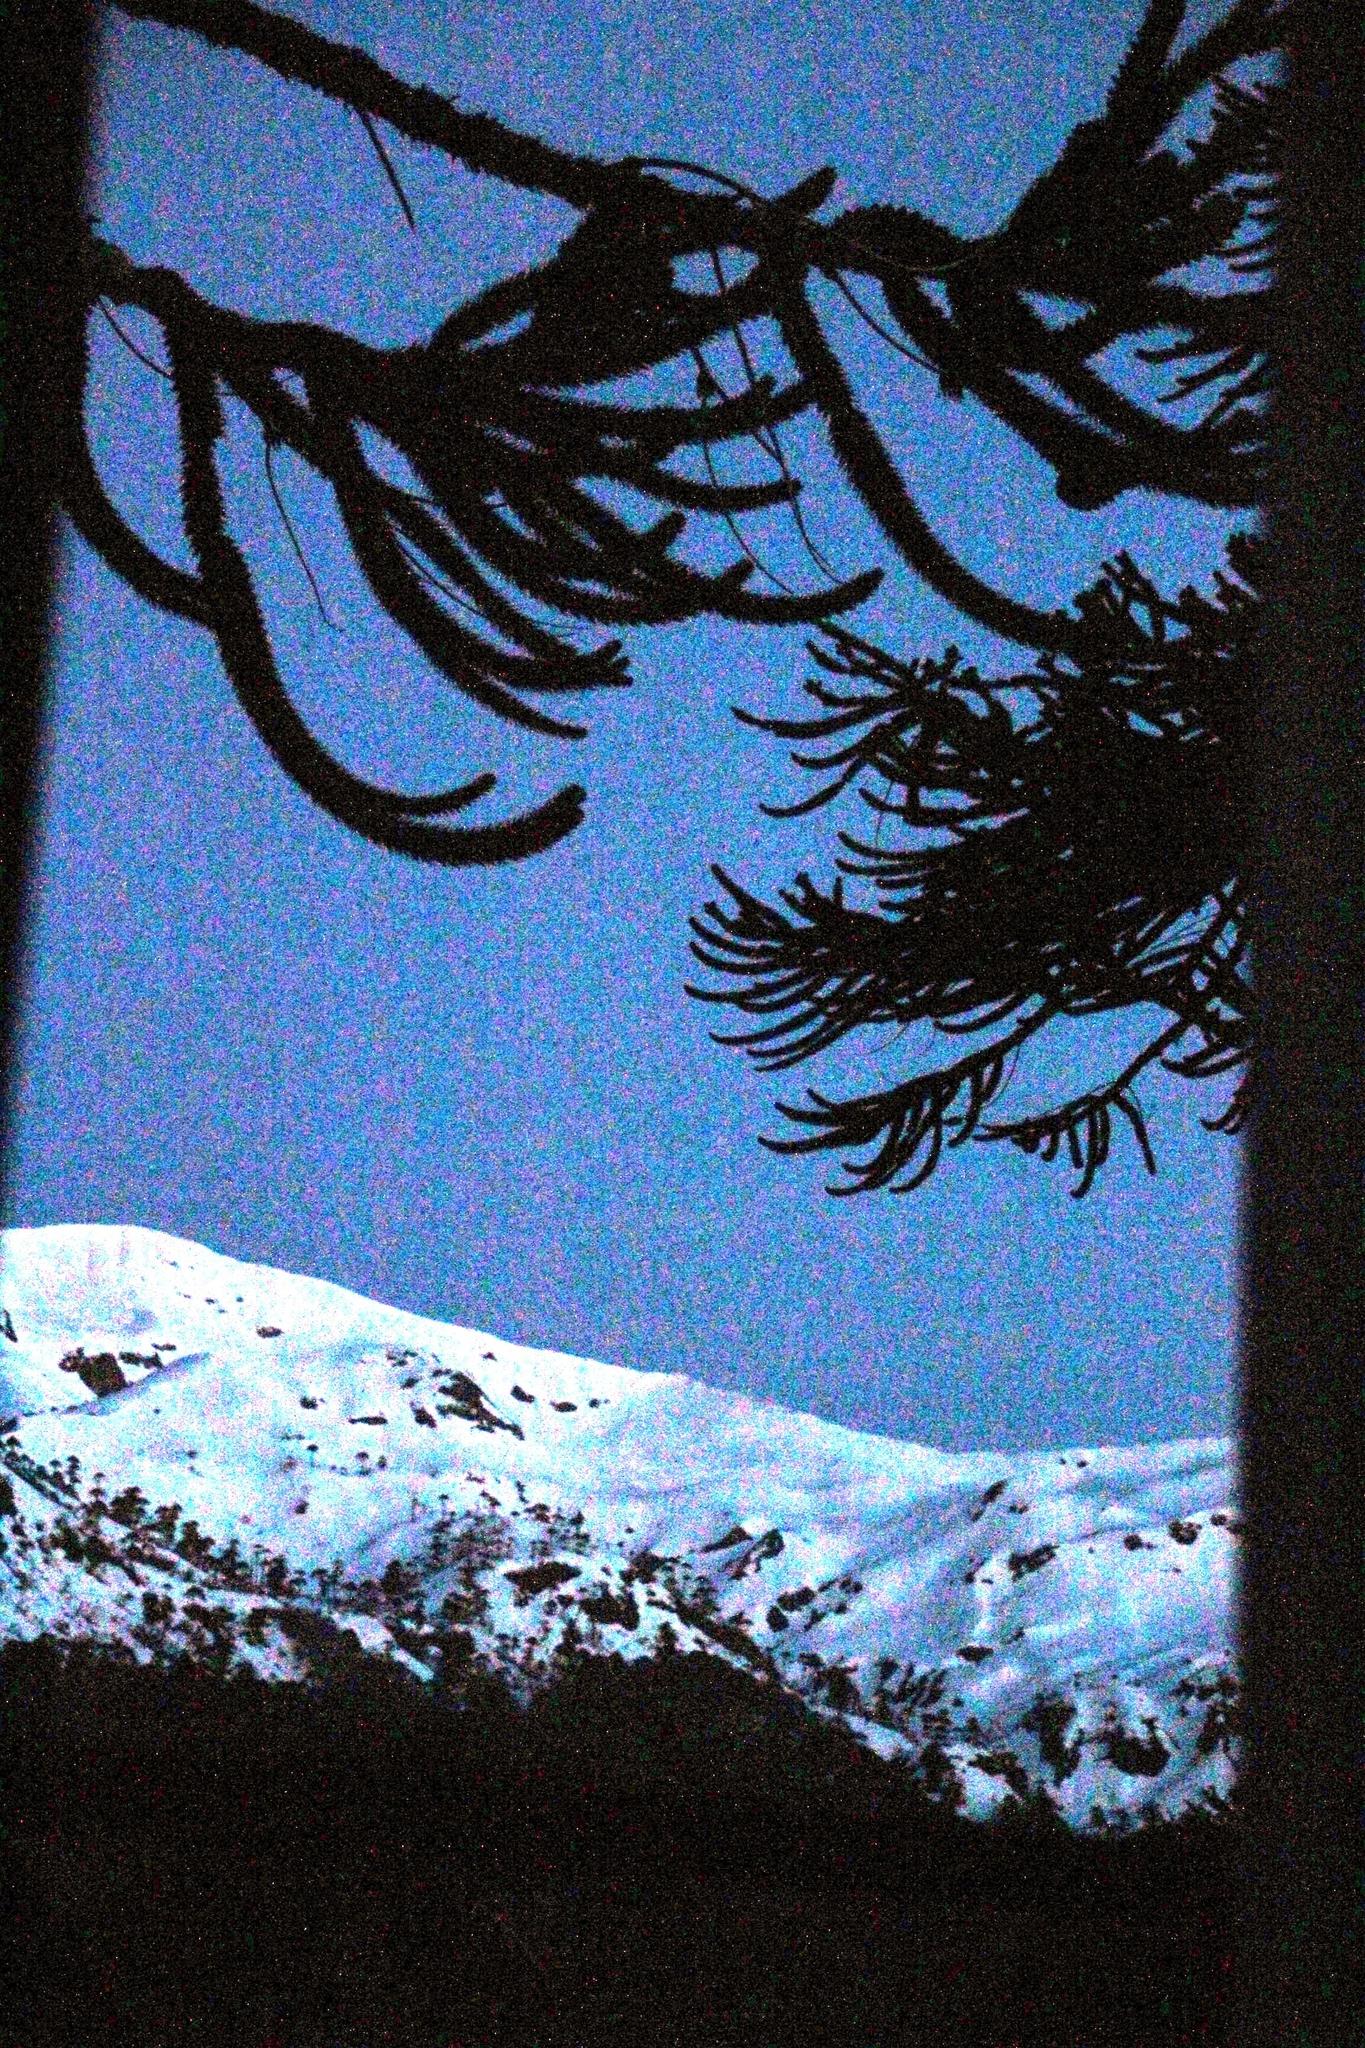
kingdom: Plantae
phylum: Tracheophyta
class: Pinopsida
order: Pinales
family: Araucariaceae
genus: Araucaria
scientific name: Araucaria araucana
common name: Monkey-puzzle
